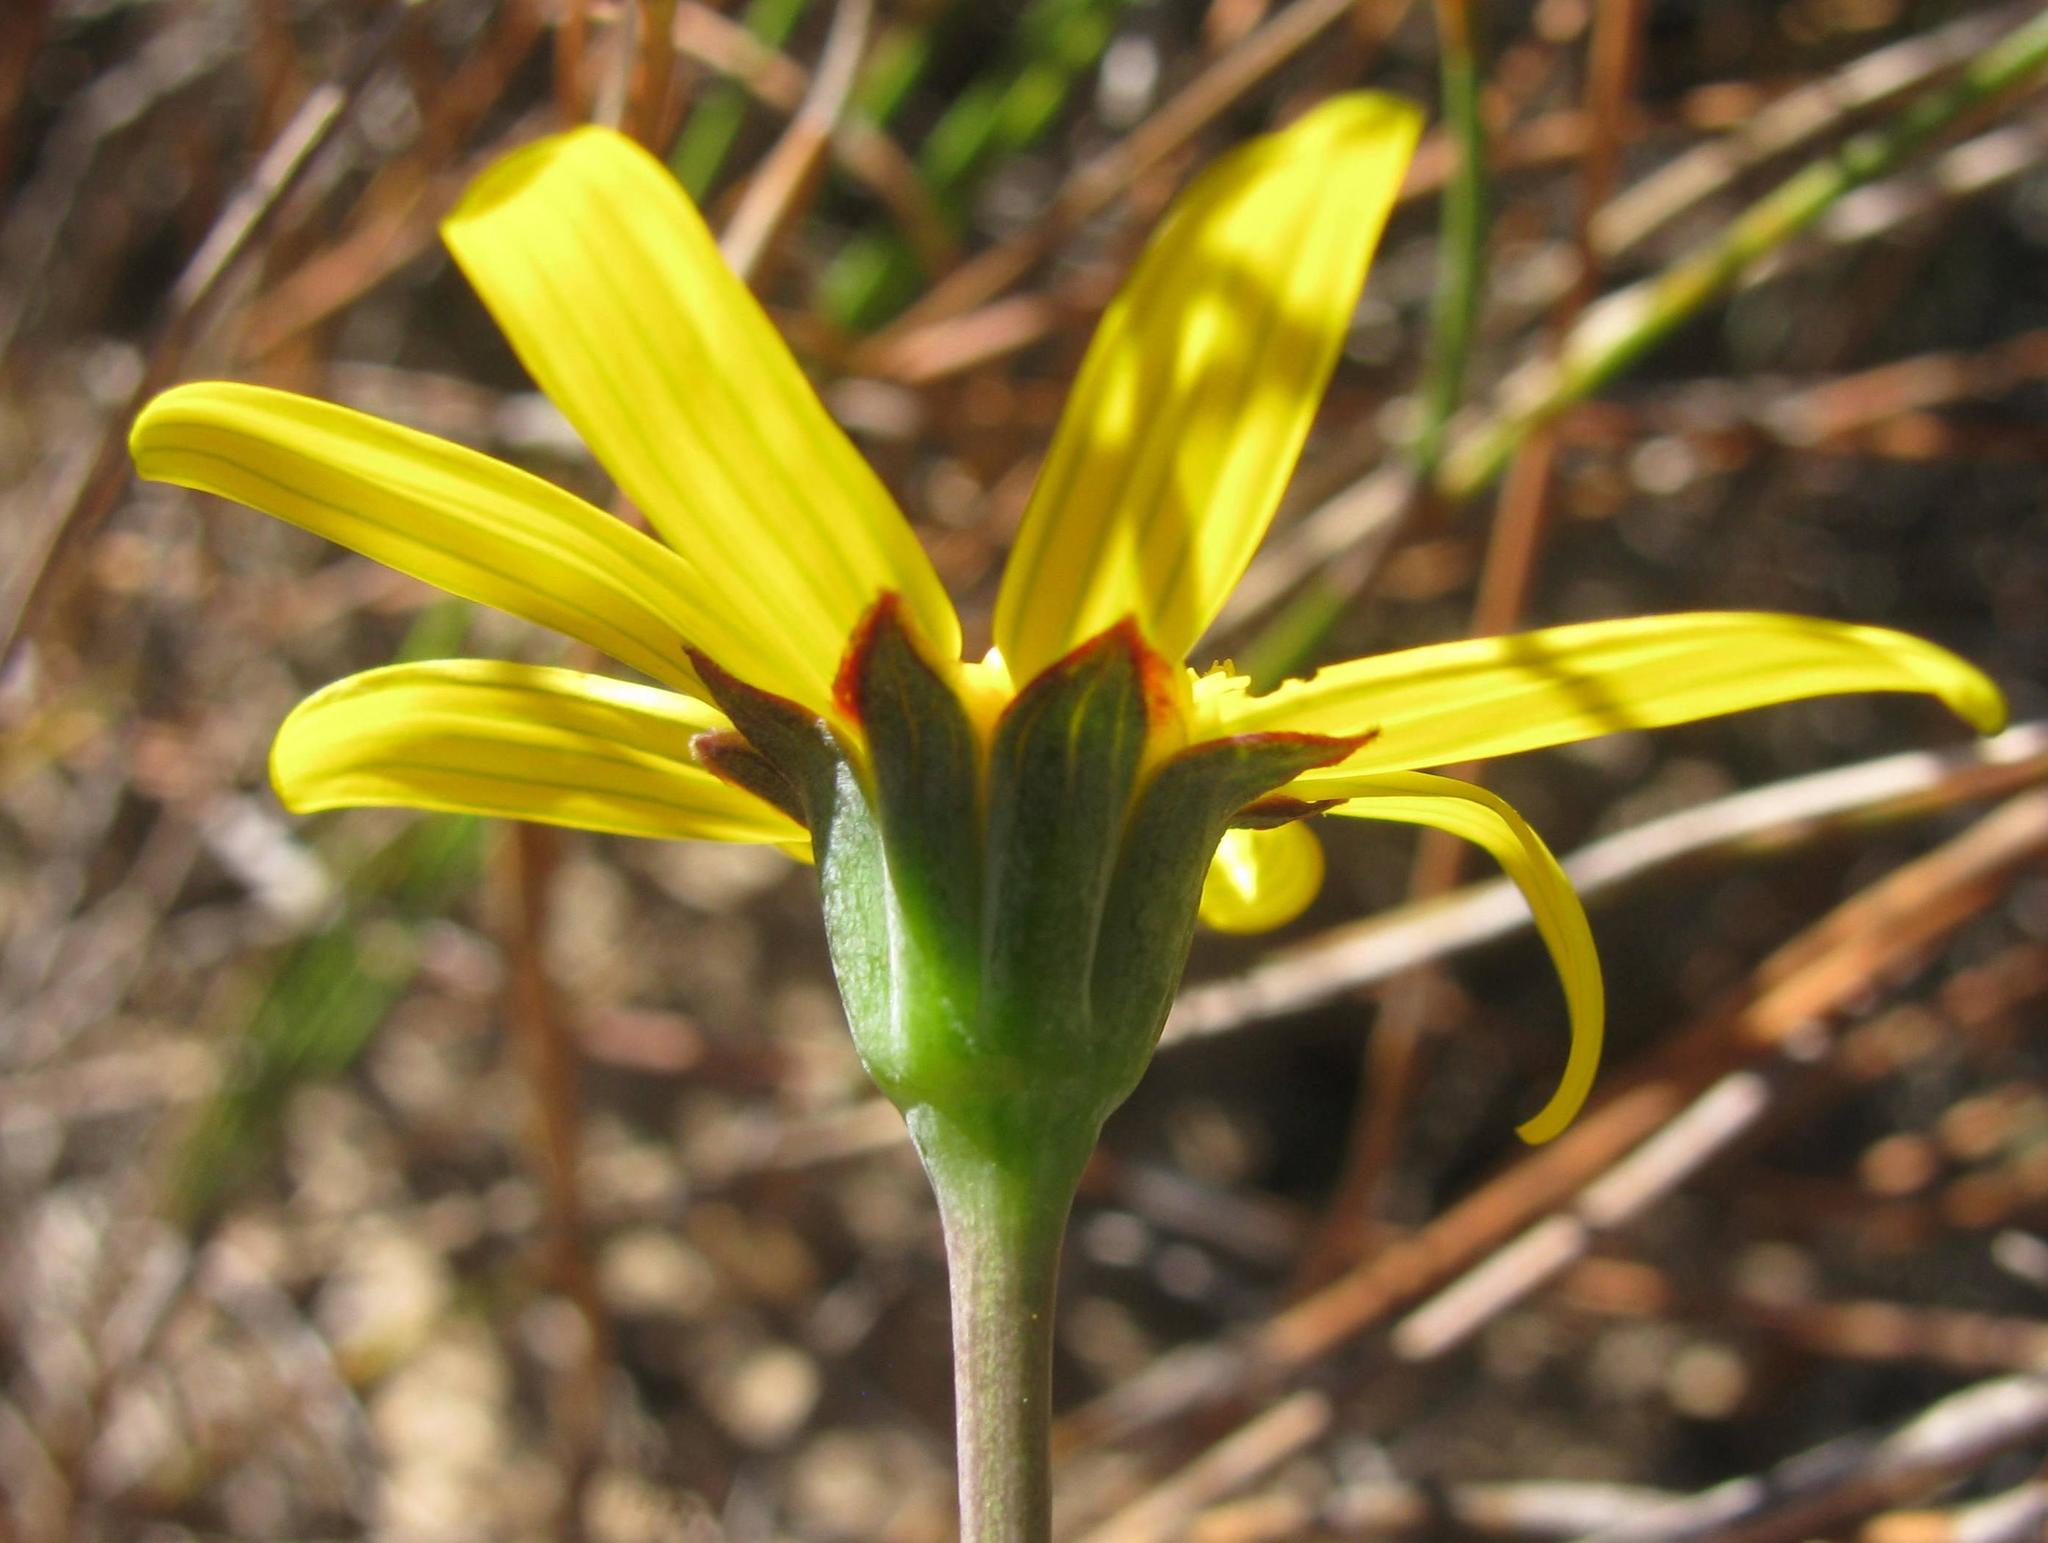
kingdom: Plantae
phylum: Tracheophyta
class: Magnoliopsida
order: Asterales
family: Asteraceae
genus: Othonna
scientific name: Othonna pinnata
